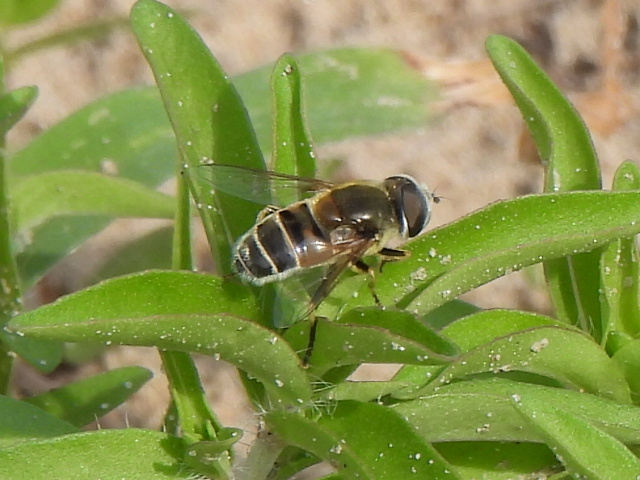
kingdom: Animalia
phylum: Arthropoda
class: Insecta
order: Diptera
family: Syrphidae
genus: Eristalis
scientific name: Eristalis stipator
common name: Yellow-shouldered drone fly
